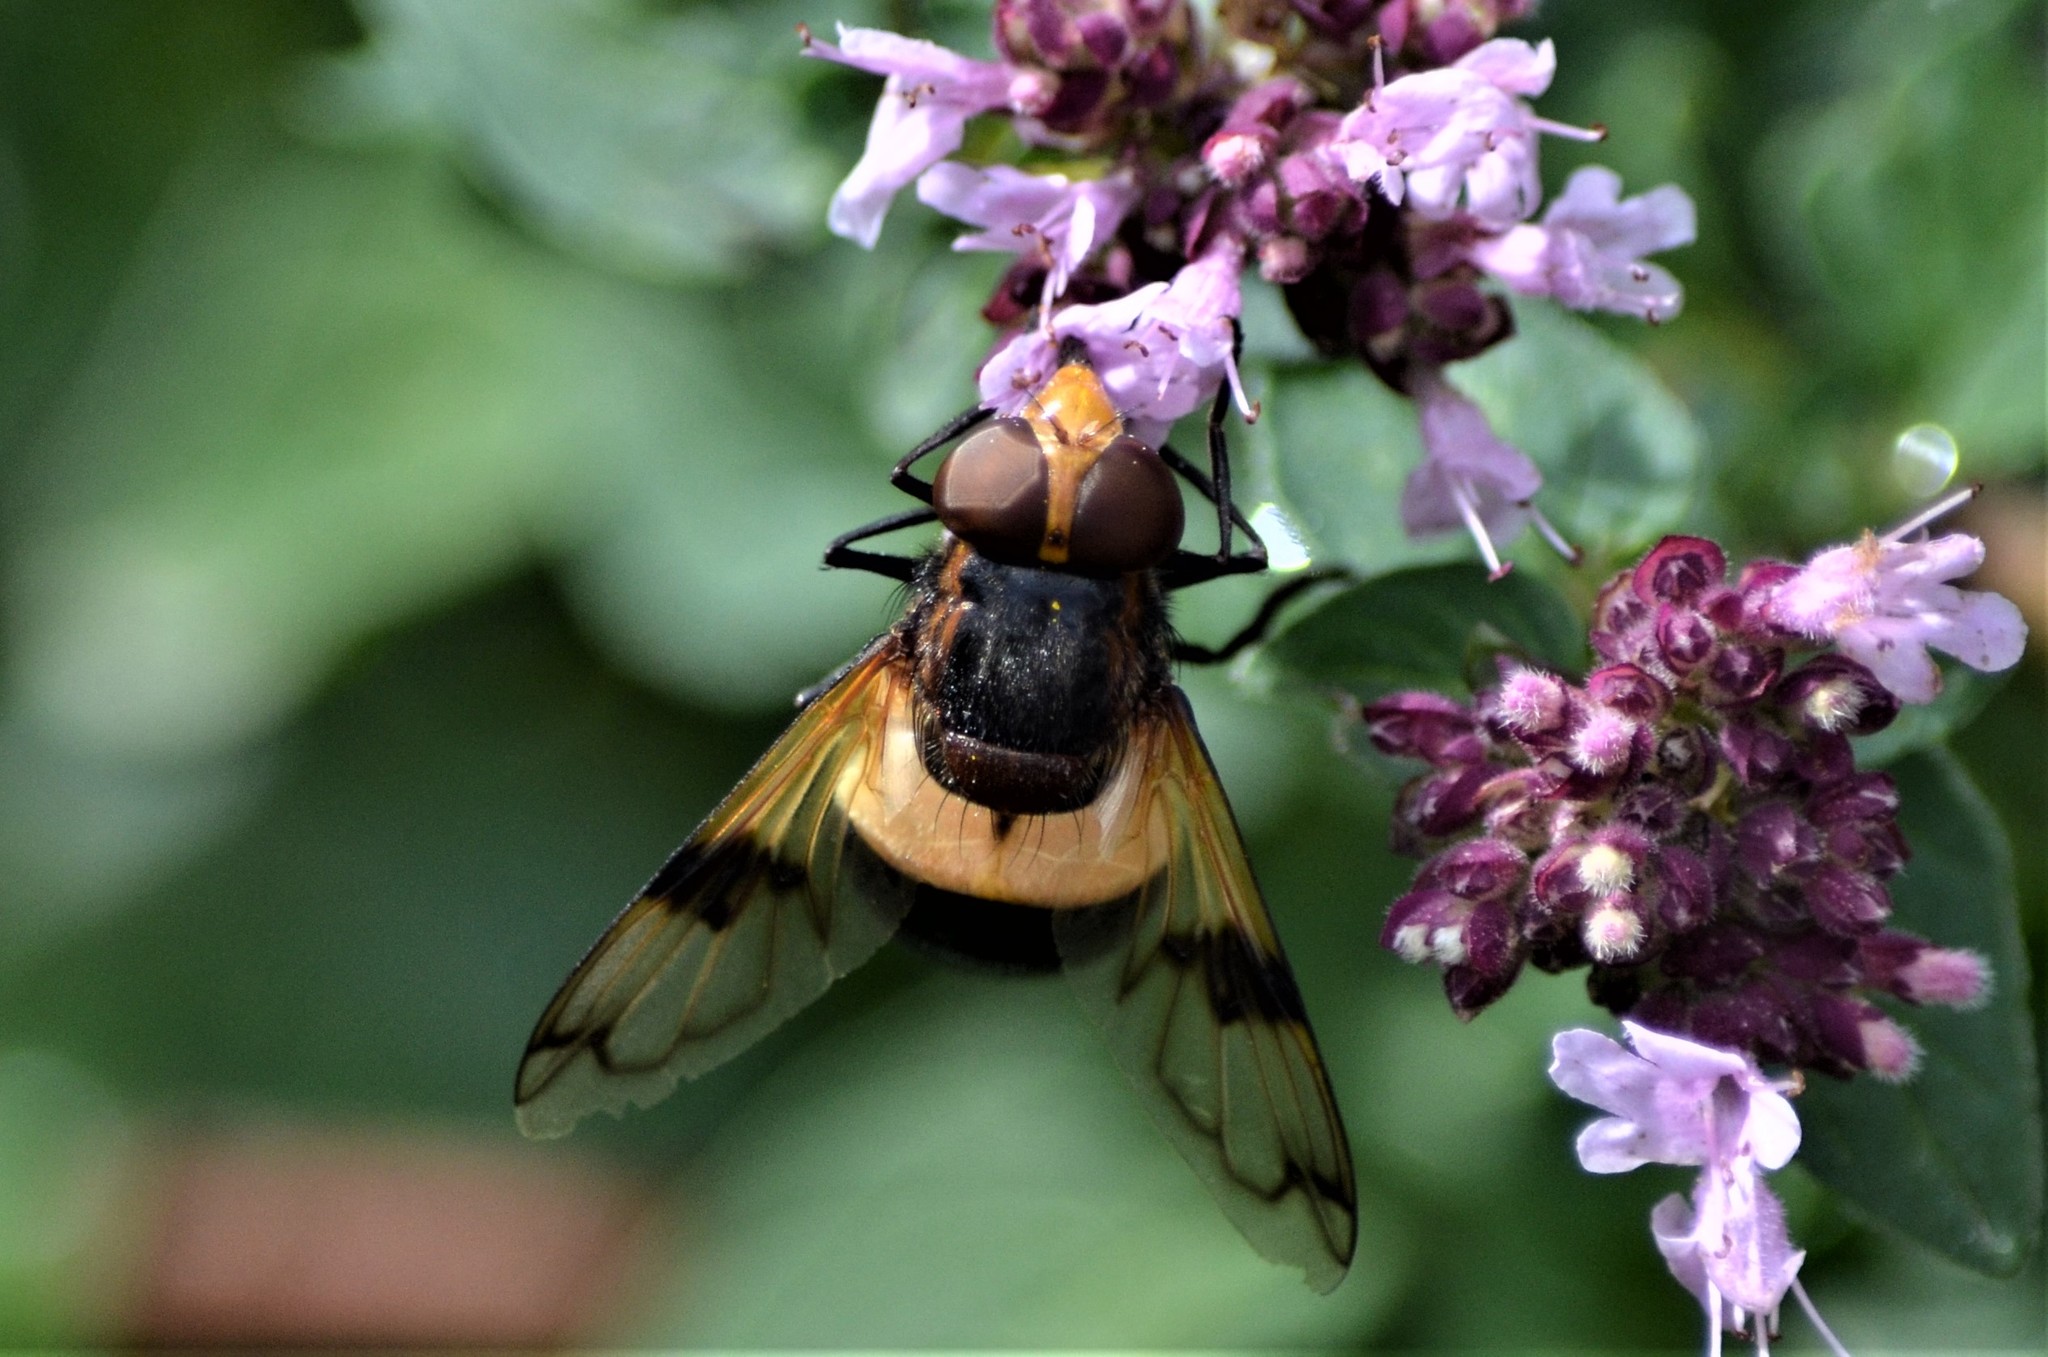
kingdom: Animalia
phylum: Arthropoda
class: Insecta
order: Diptera
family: Syrphidae
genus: Volucella
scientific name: Volucella pellucens
